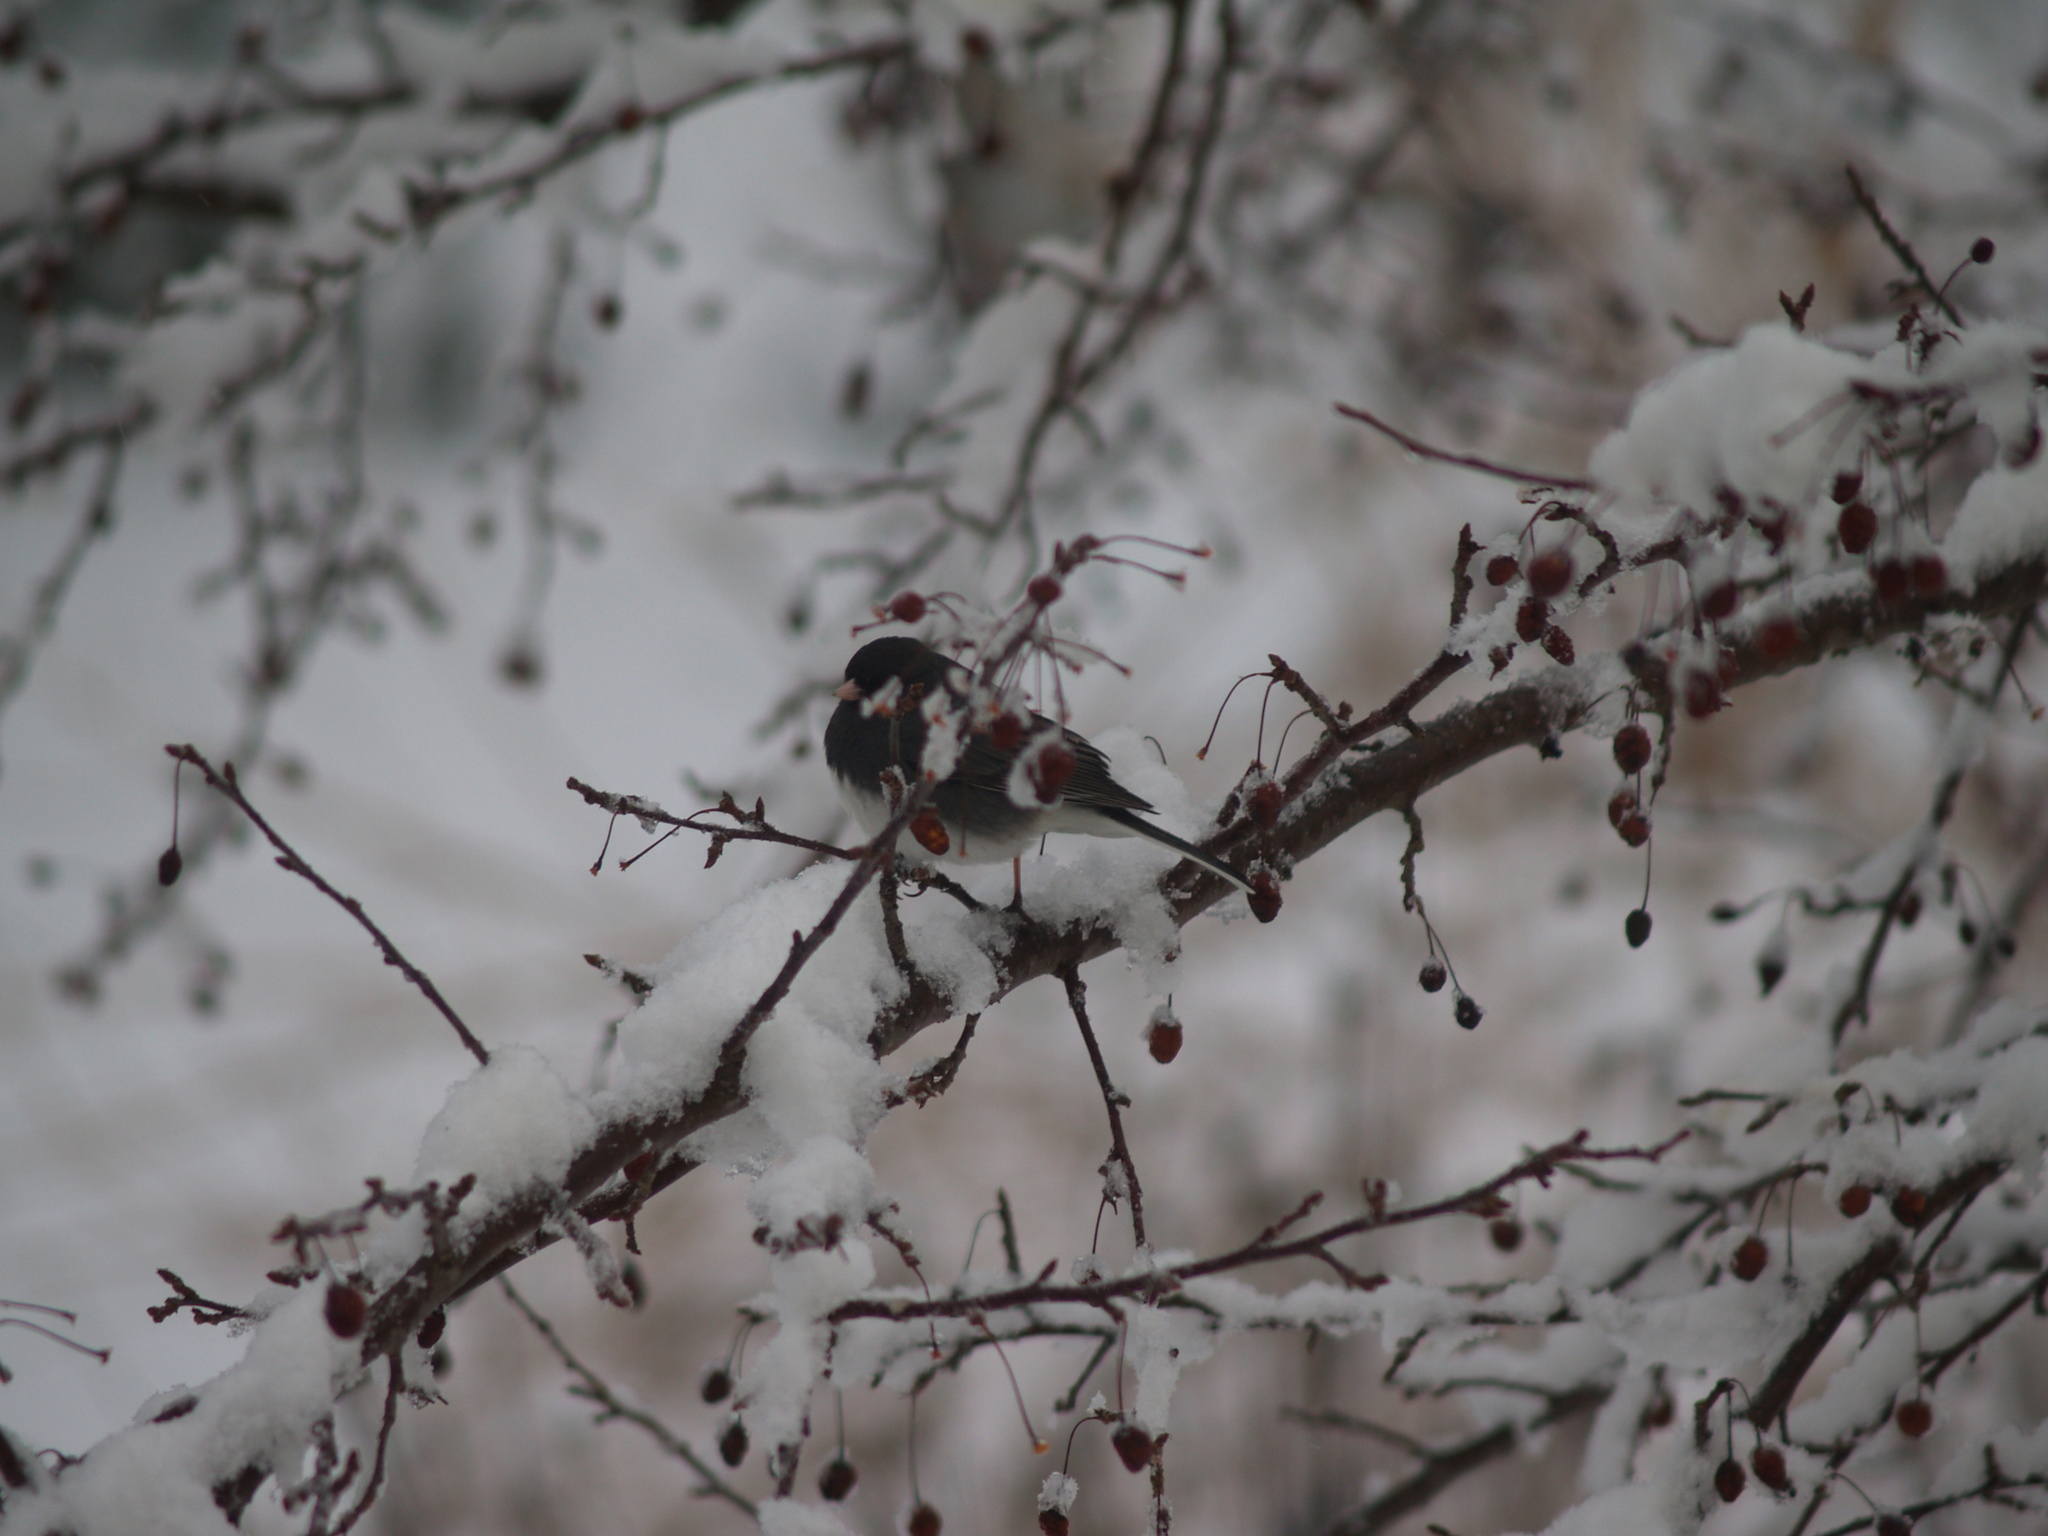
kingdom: Animalia
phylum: Chordata
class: Aves
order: Passeriformes
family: Passerellidae
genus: Junco
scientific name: Junco hyemalis
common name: Dark-eyed junco
